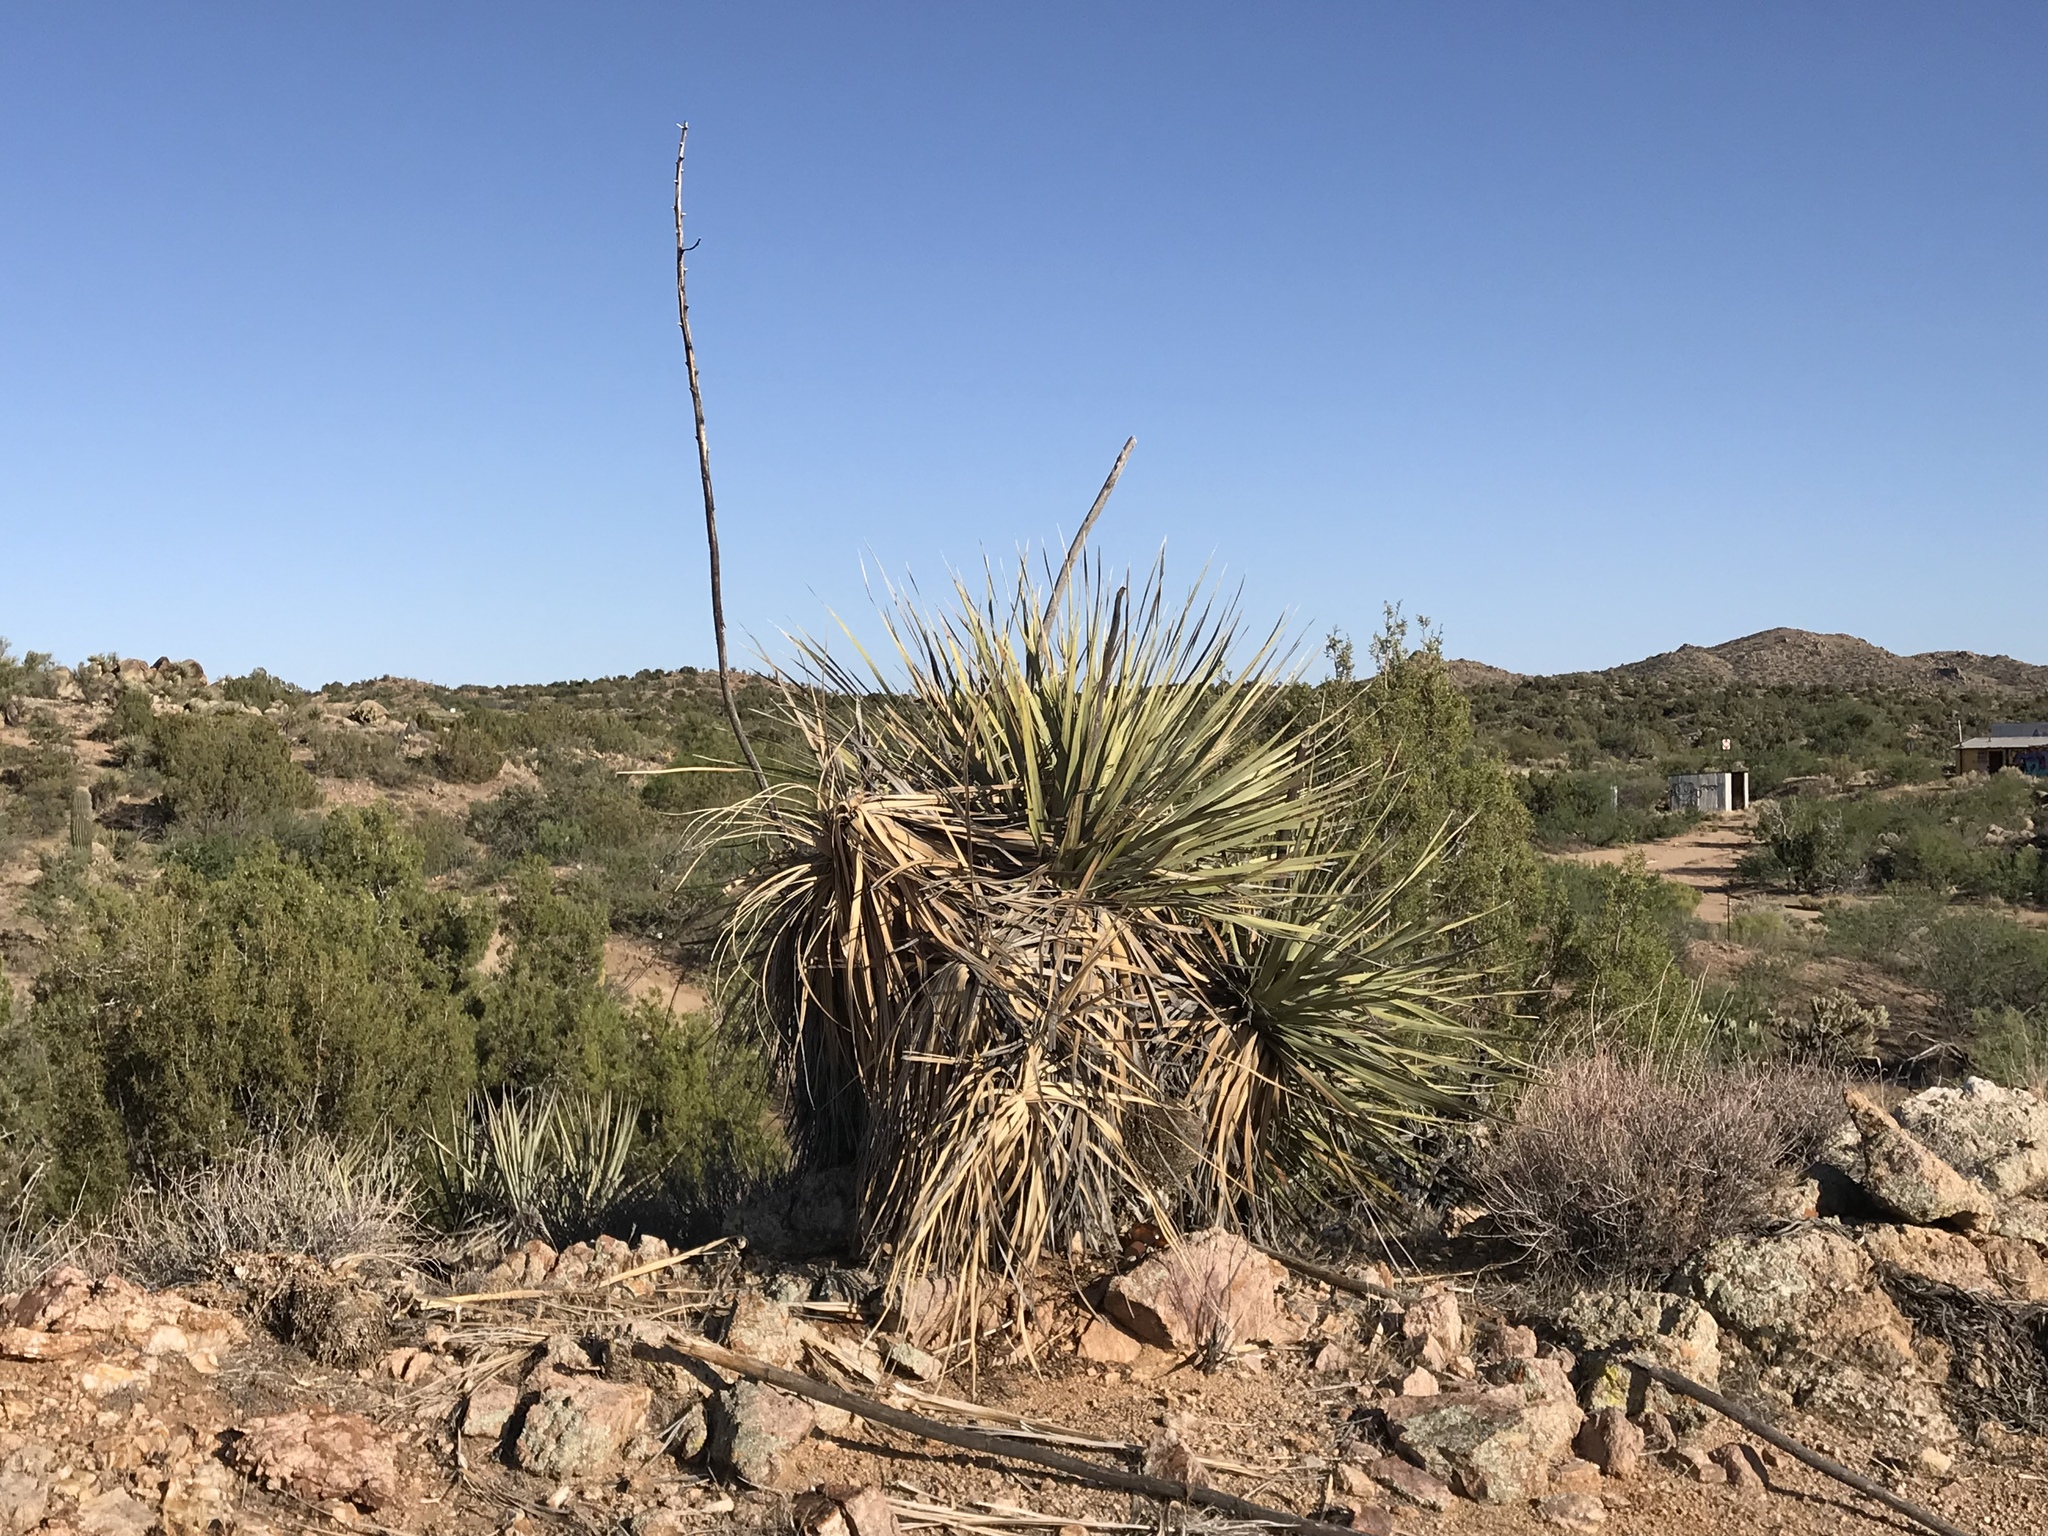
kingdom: Plantae
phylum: Tracheophyta
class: Liliopsida
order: Asparagales
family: Asparagaceae
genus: Nolina
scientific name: Nolina bigelovii
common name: Bigelow bear-grass
